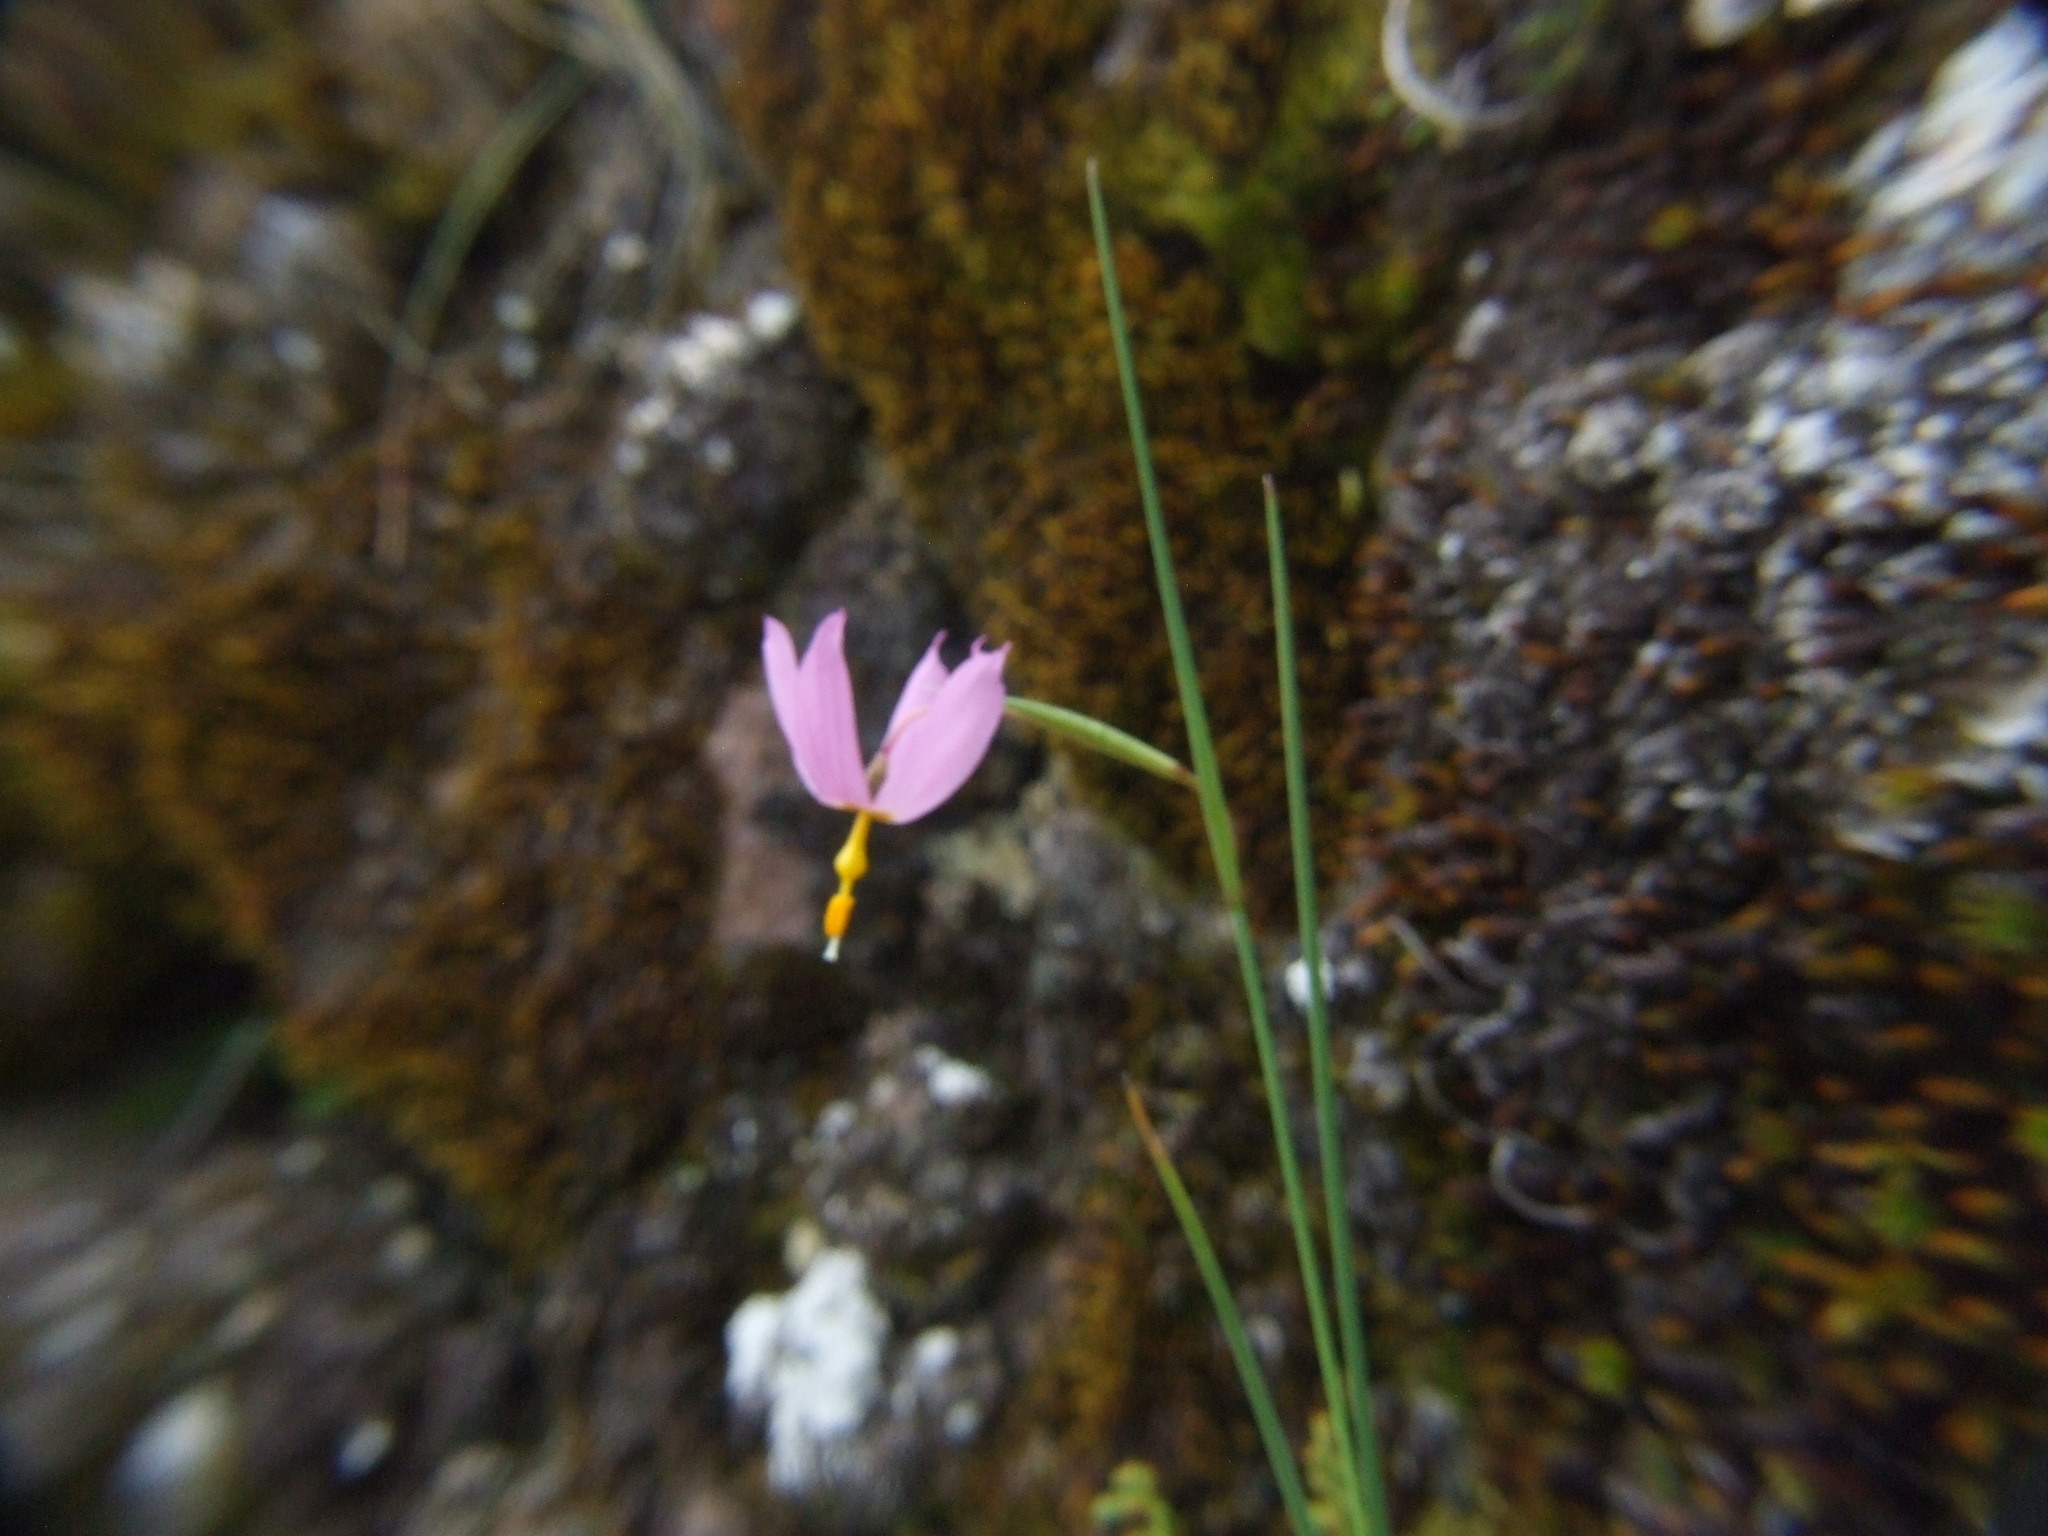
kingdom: Plantae
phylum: Tracheophyta
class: Liliopsida
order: Asparagales
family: Iridaceae
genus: Olsynium
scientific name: Olsynium junceum
